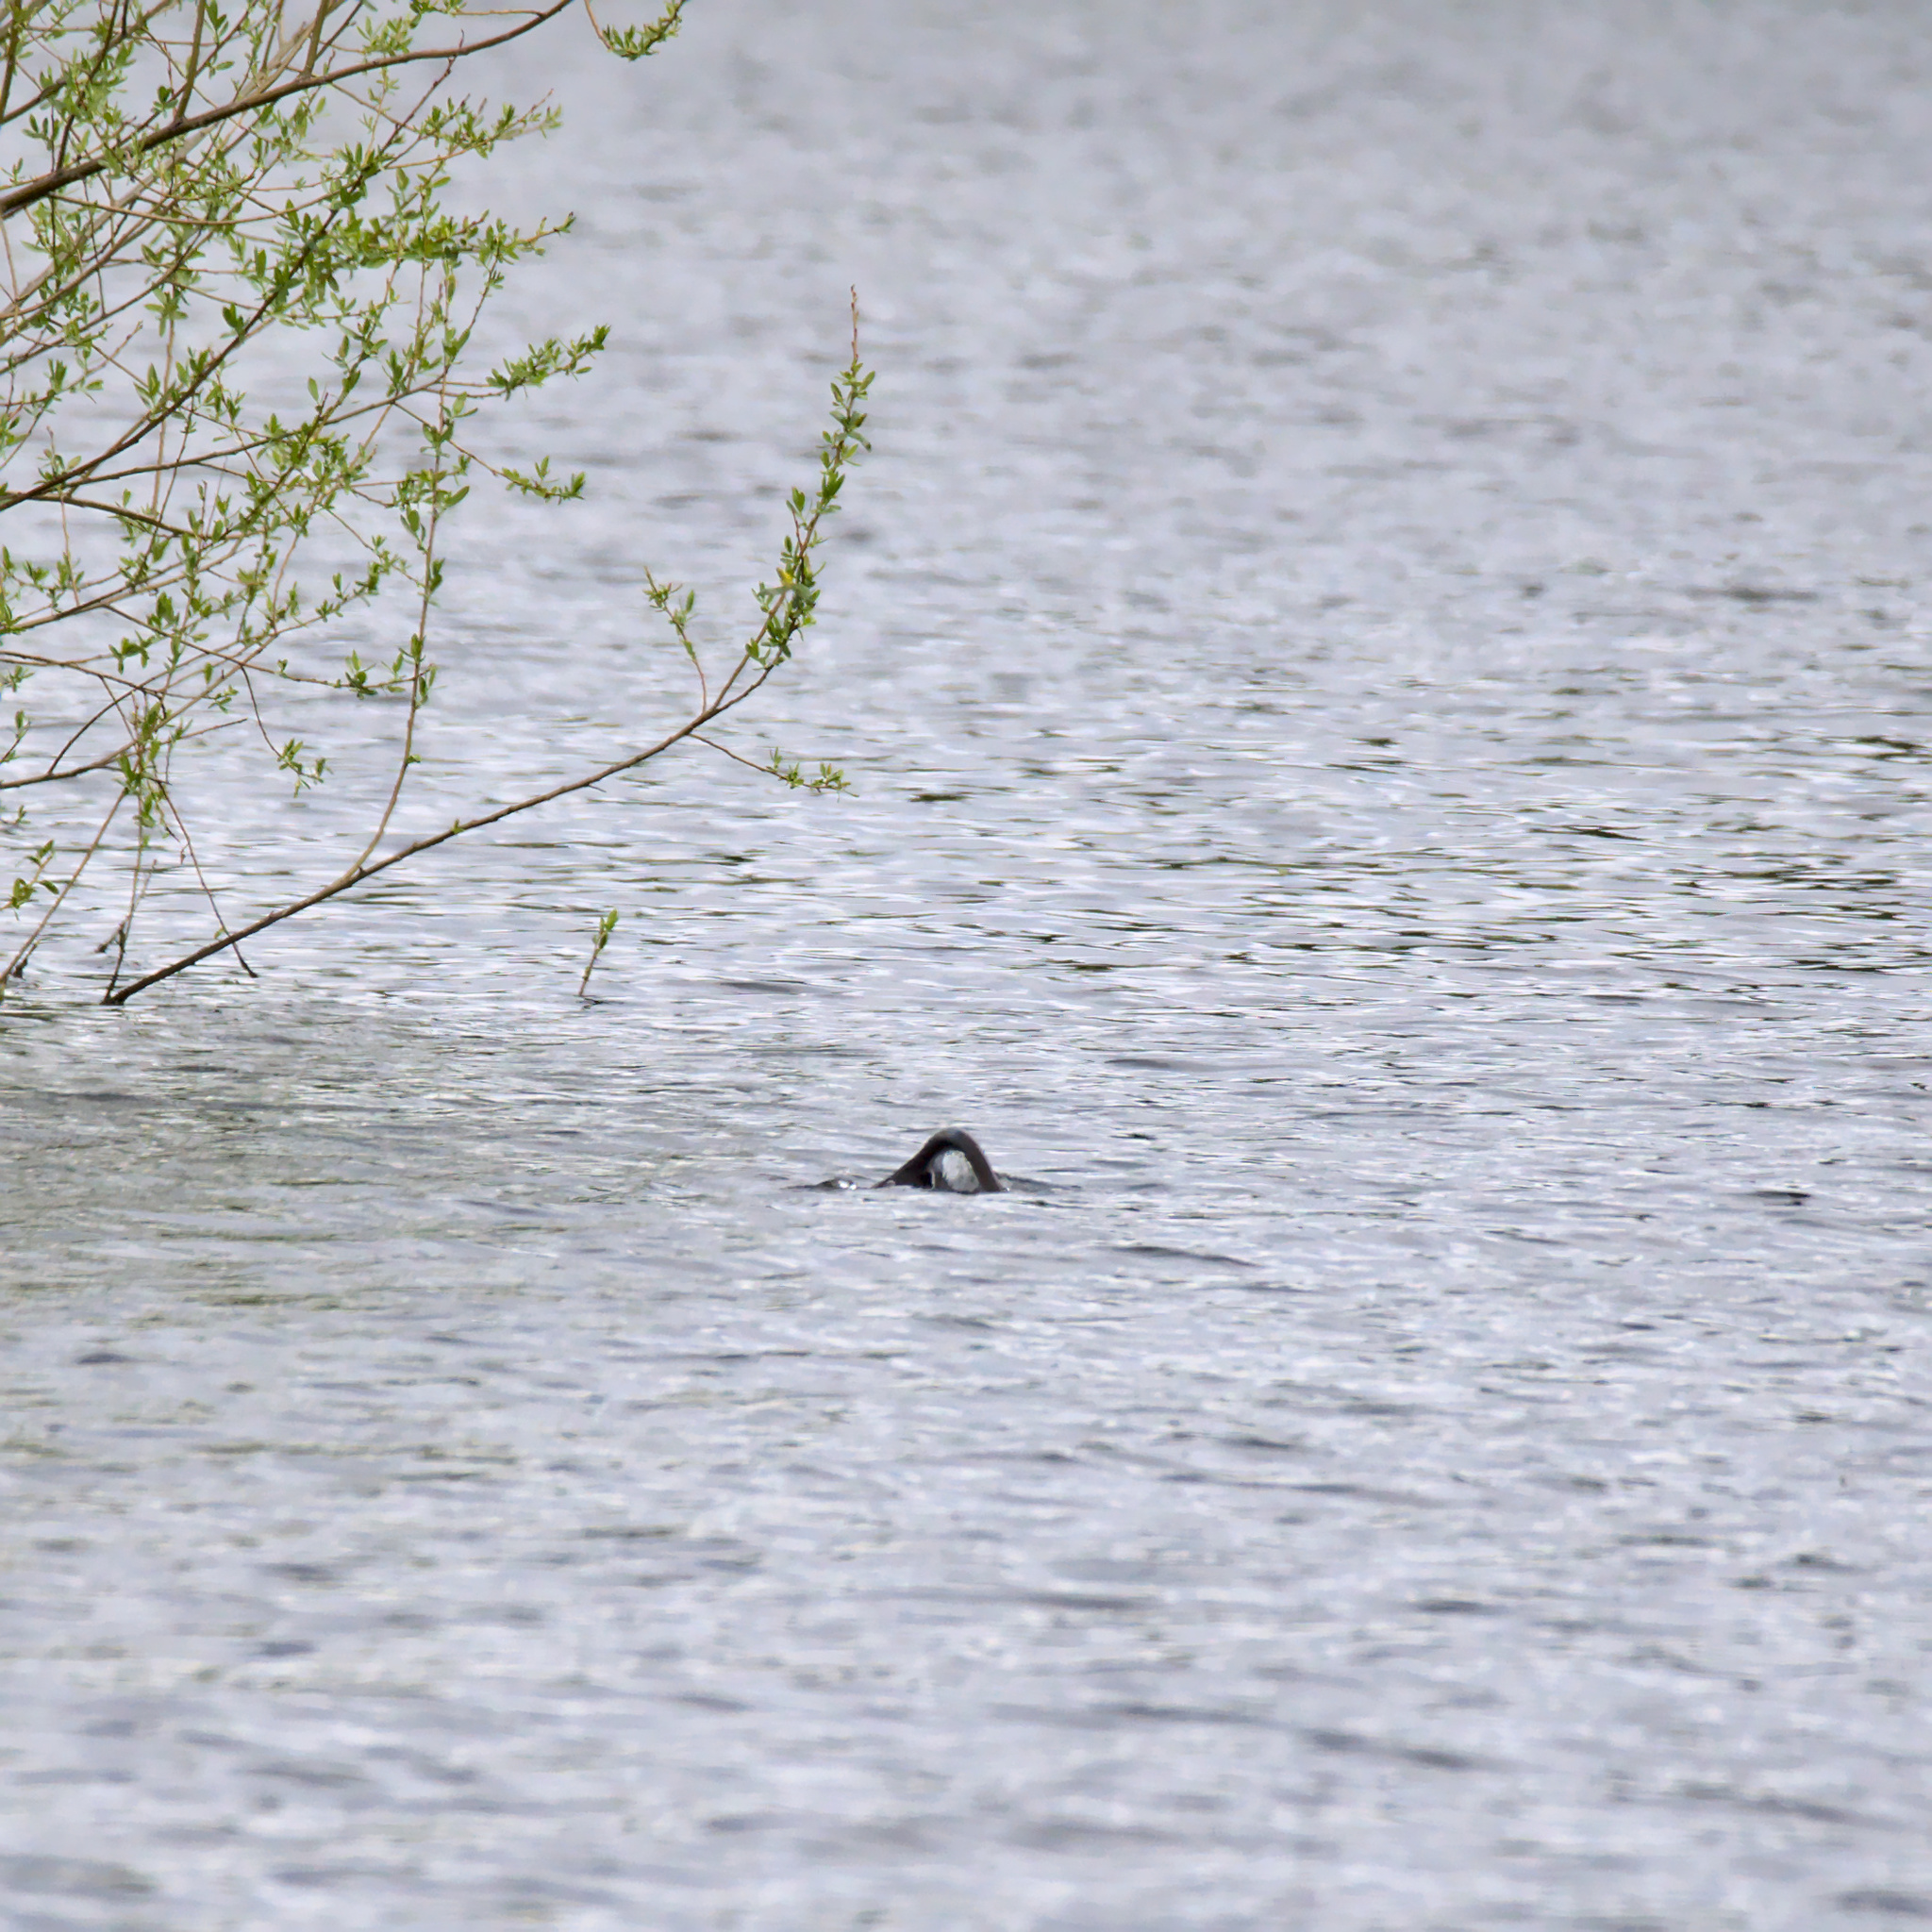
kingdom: Animalia
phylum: Chordata
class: Mammalia
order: Rodentia
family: Myocastoridae
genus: Myocastor
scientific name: Myocastor coypus
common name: Coypu
